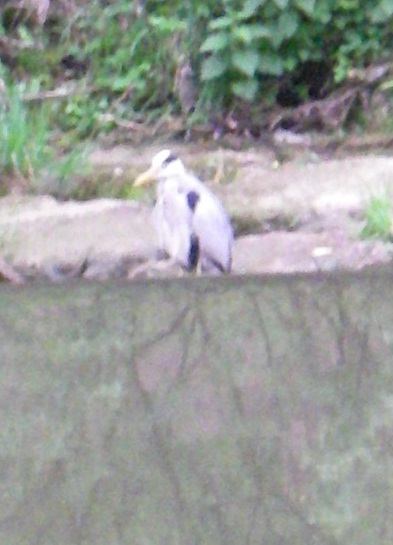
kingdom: Animalia
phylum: Chordata
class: Aves
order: Pelecaniformes
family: Ardeidae
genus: Ardea
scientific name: Ardea cinerea
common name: Grey heron
